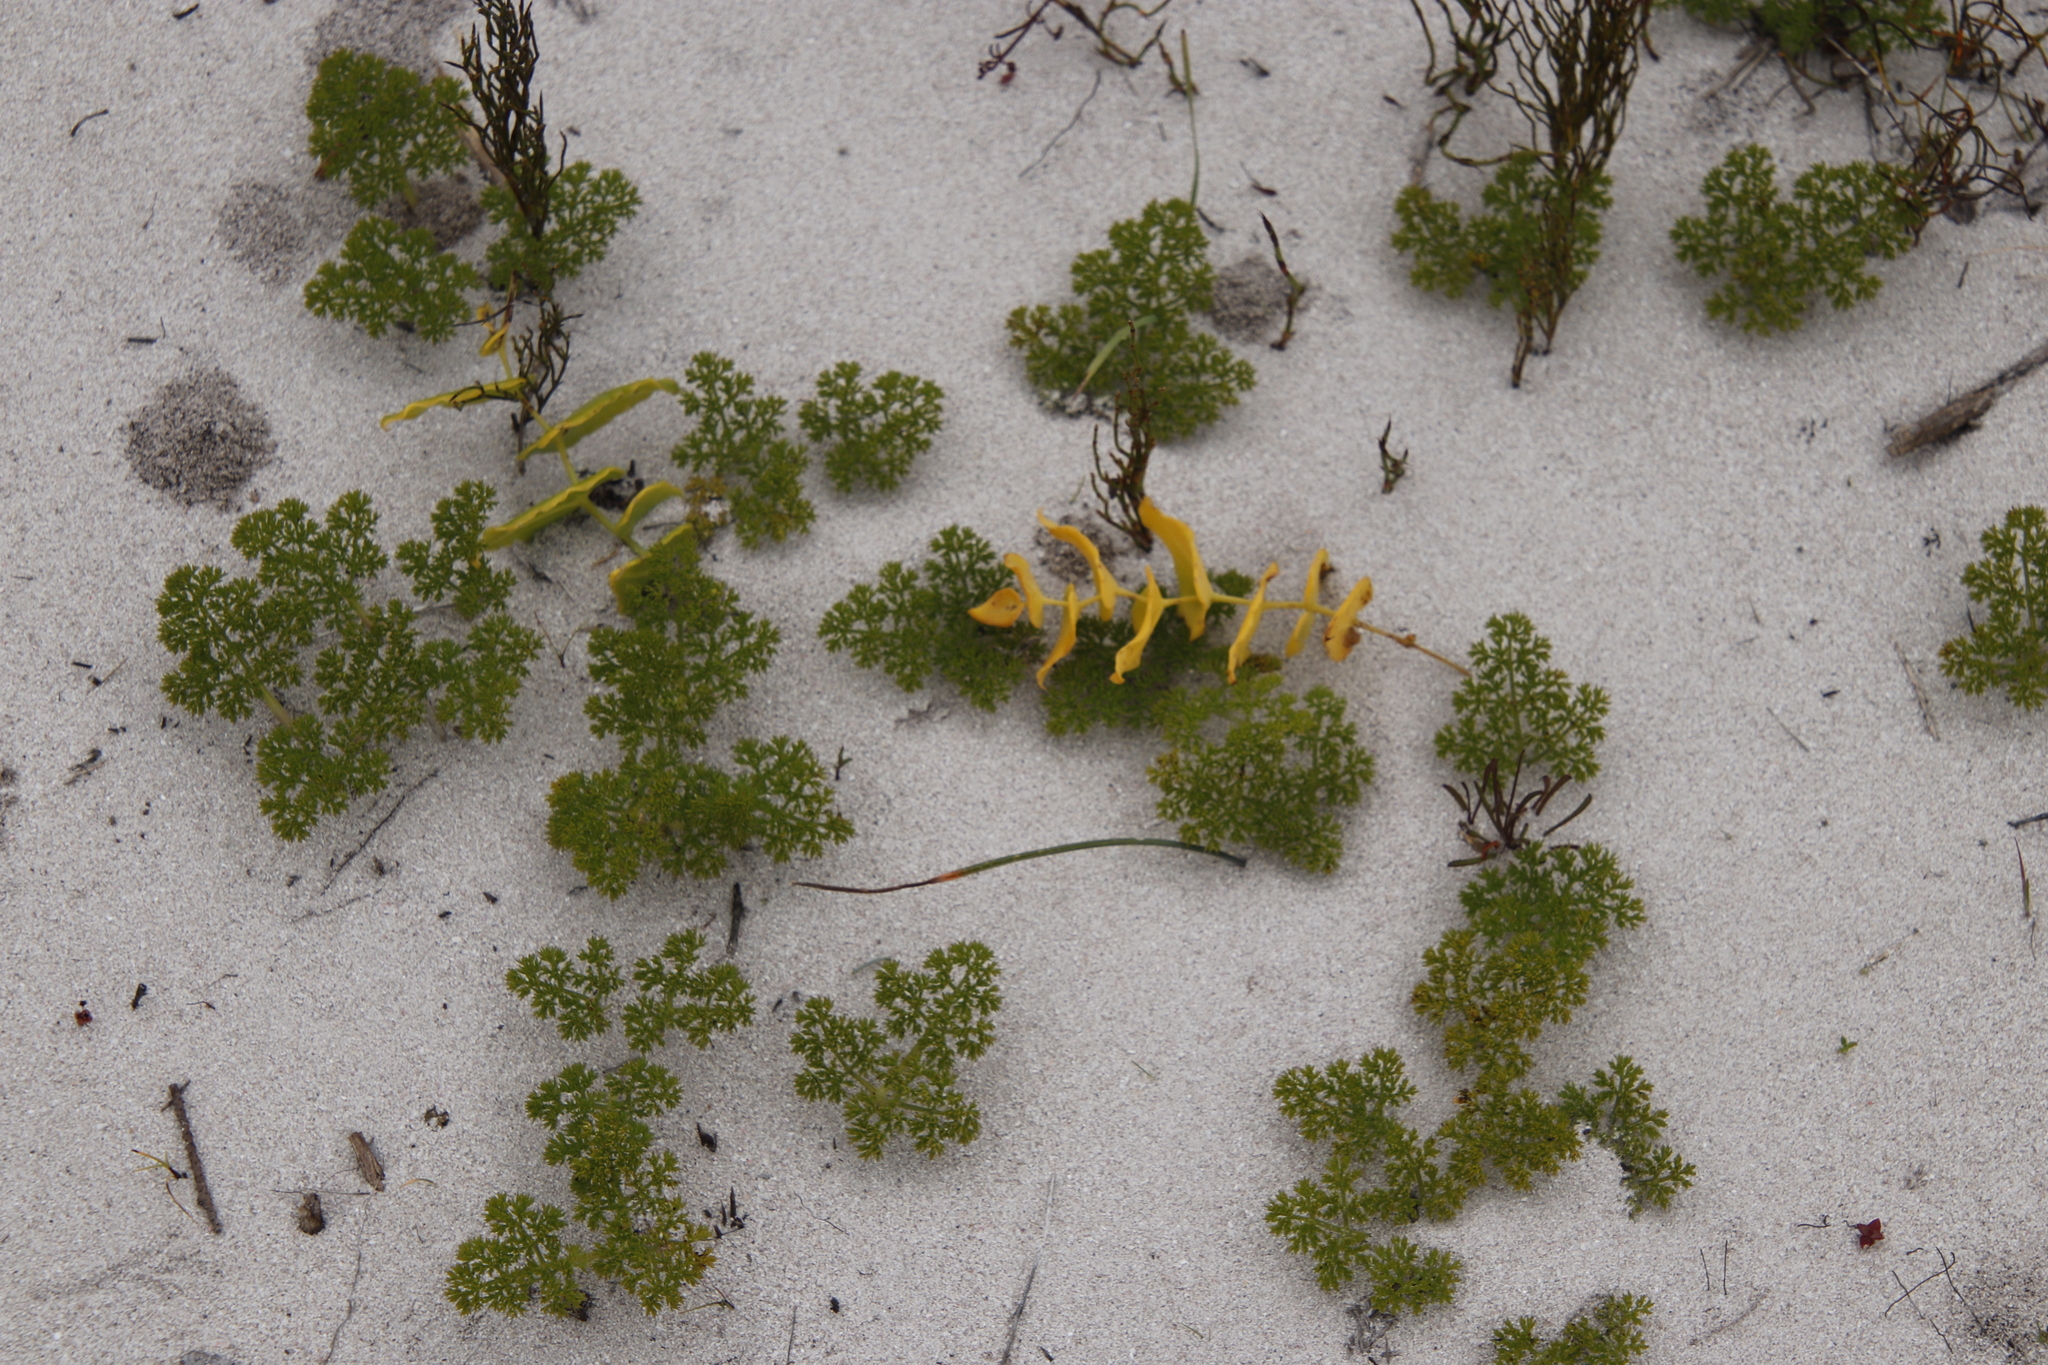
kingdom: Plantae
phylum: Tracheophyta
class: Magnoliopsida
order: Apiales
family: Apiaceae
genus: Annesorhiza
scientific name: Annesorhiza macrocarpa
